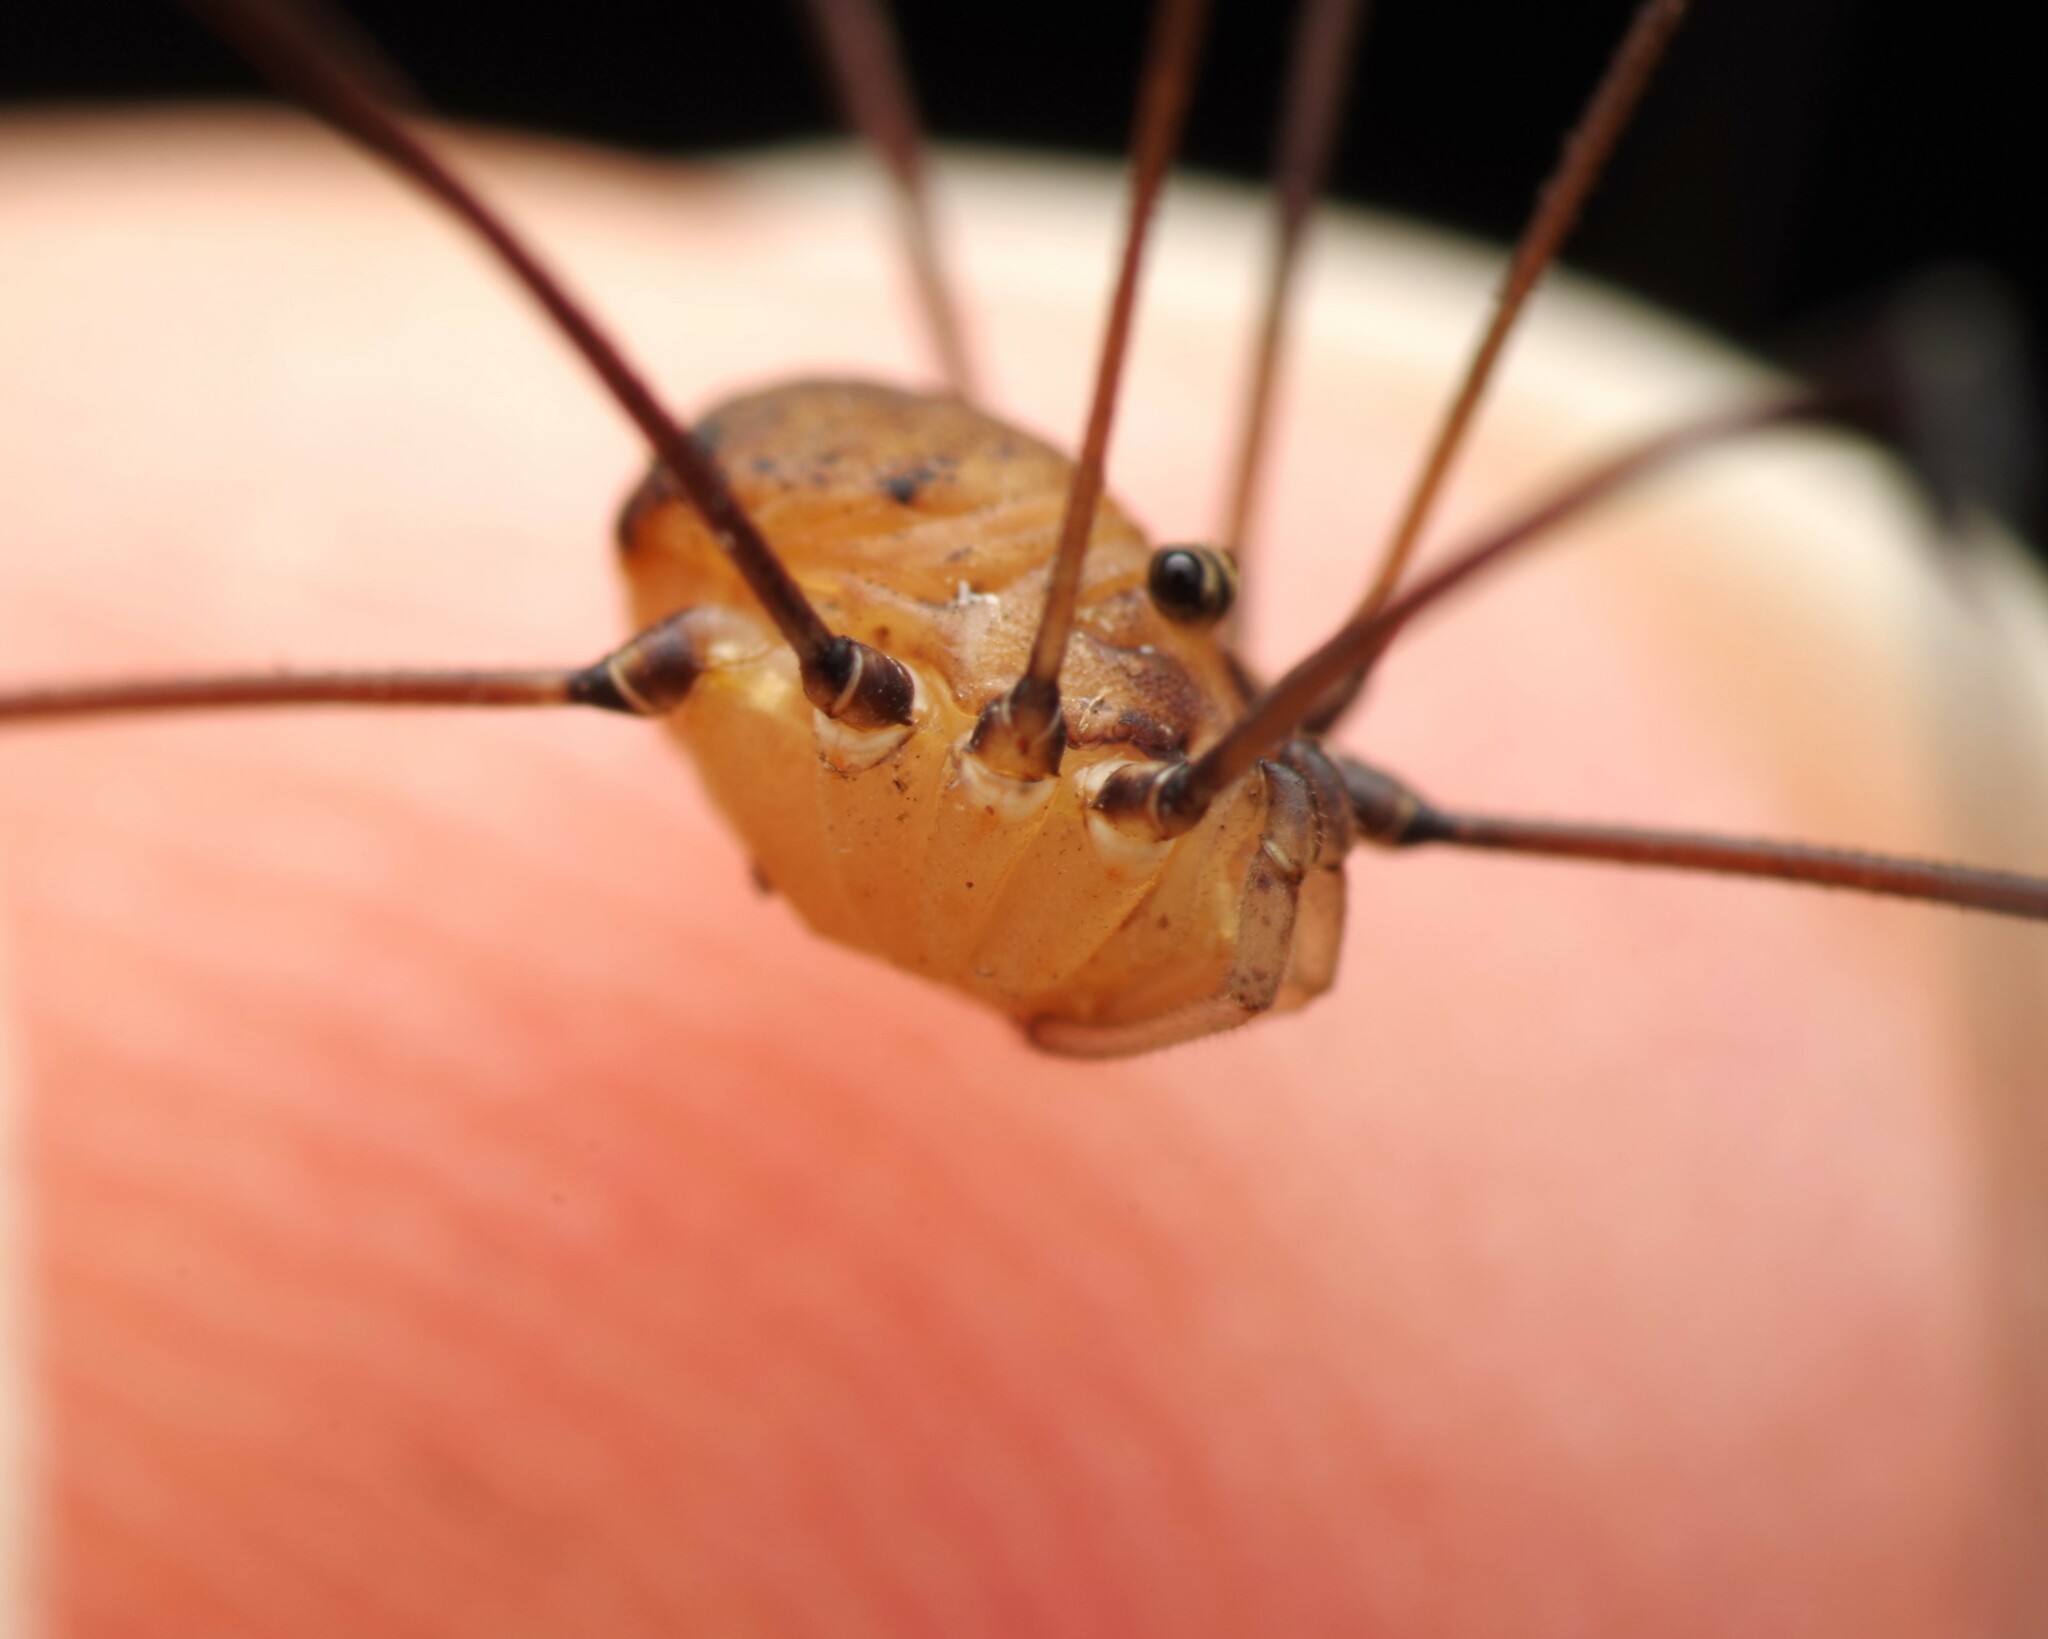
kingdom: Animalia
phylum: Arthropoda
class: Arachnida
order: Opiliones
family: Sclerosomatidae
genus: Leiobunum
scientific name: Leiobunum blackwalli
